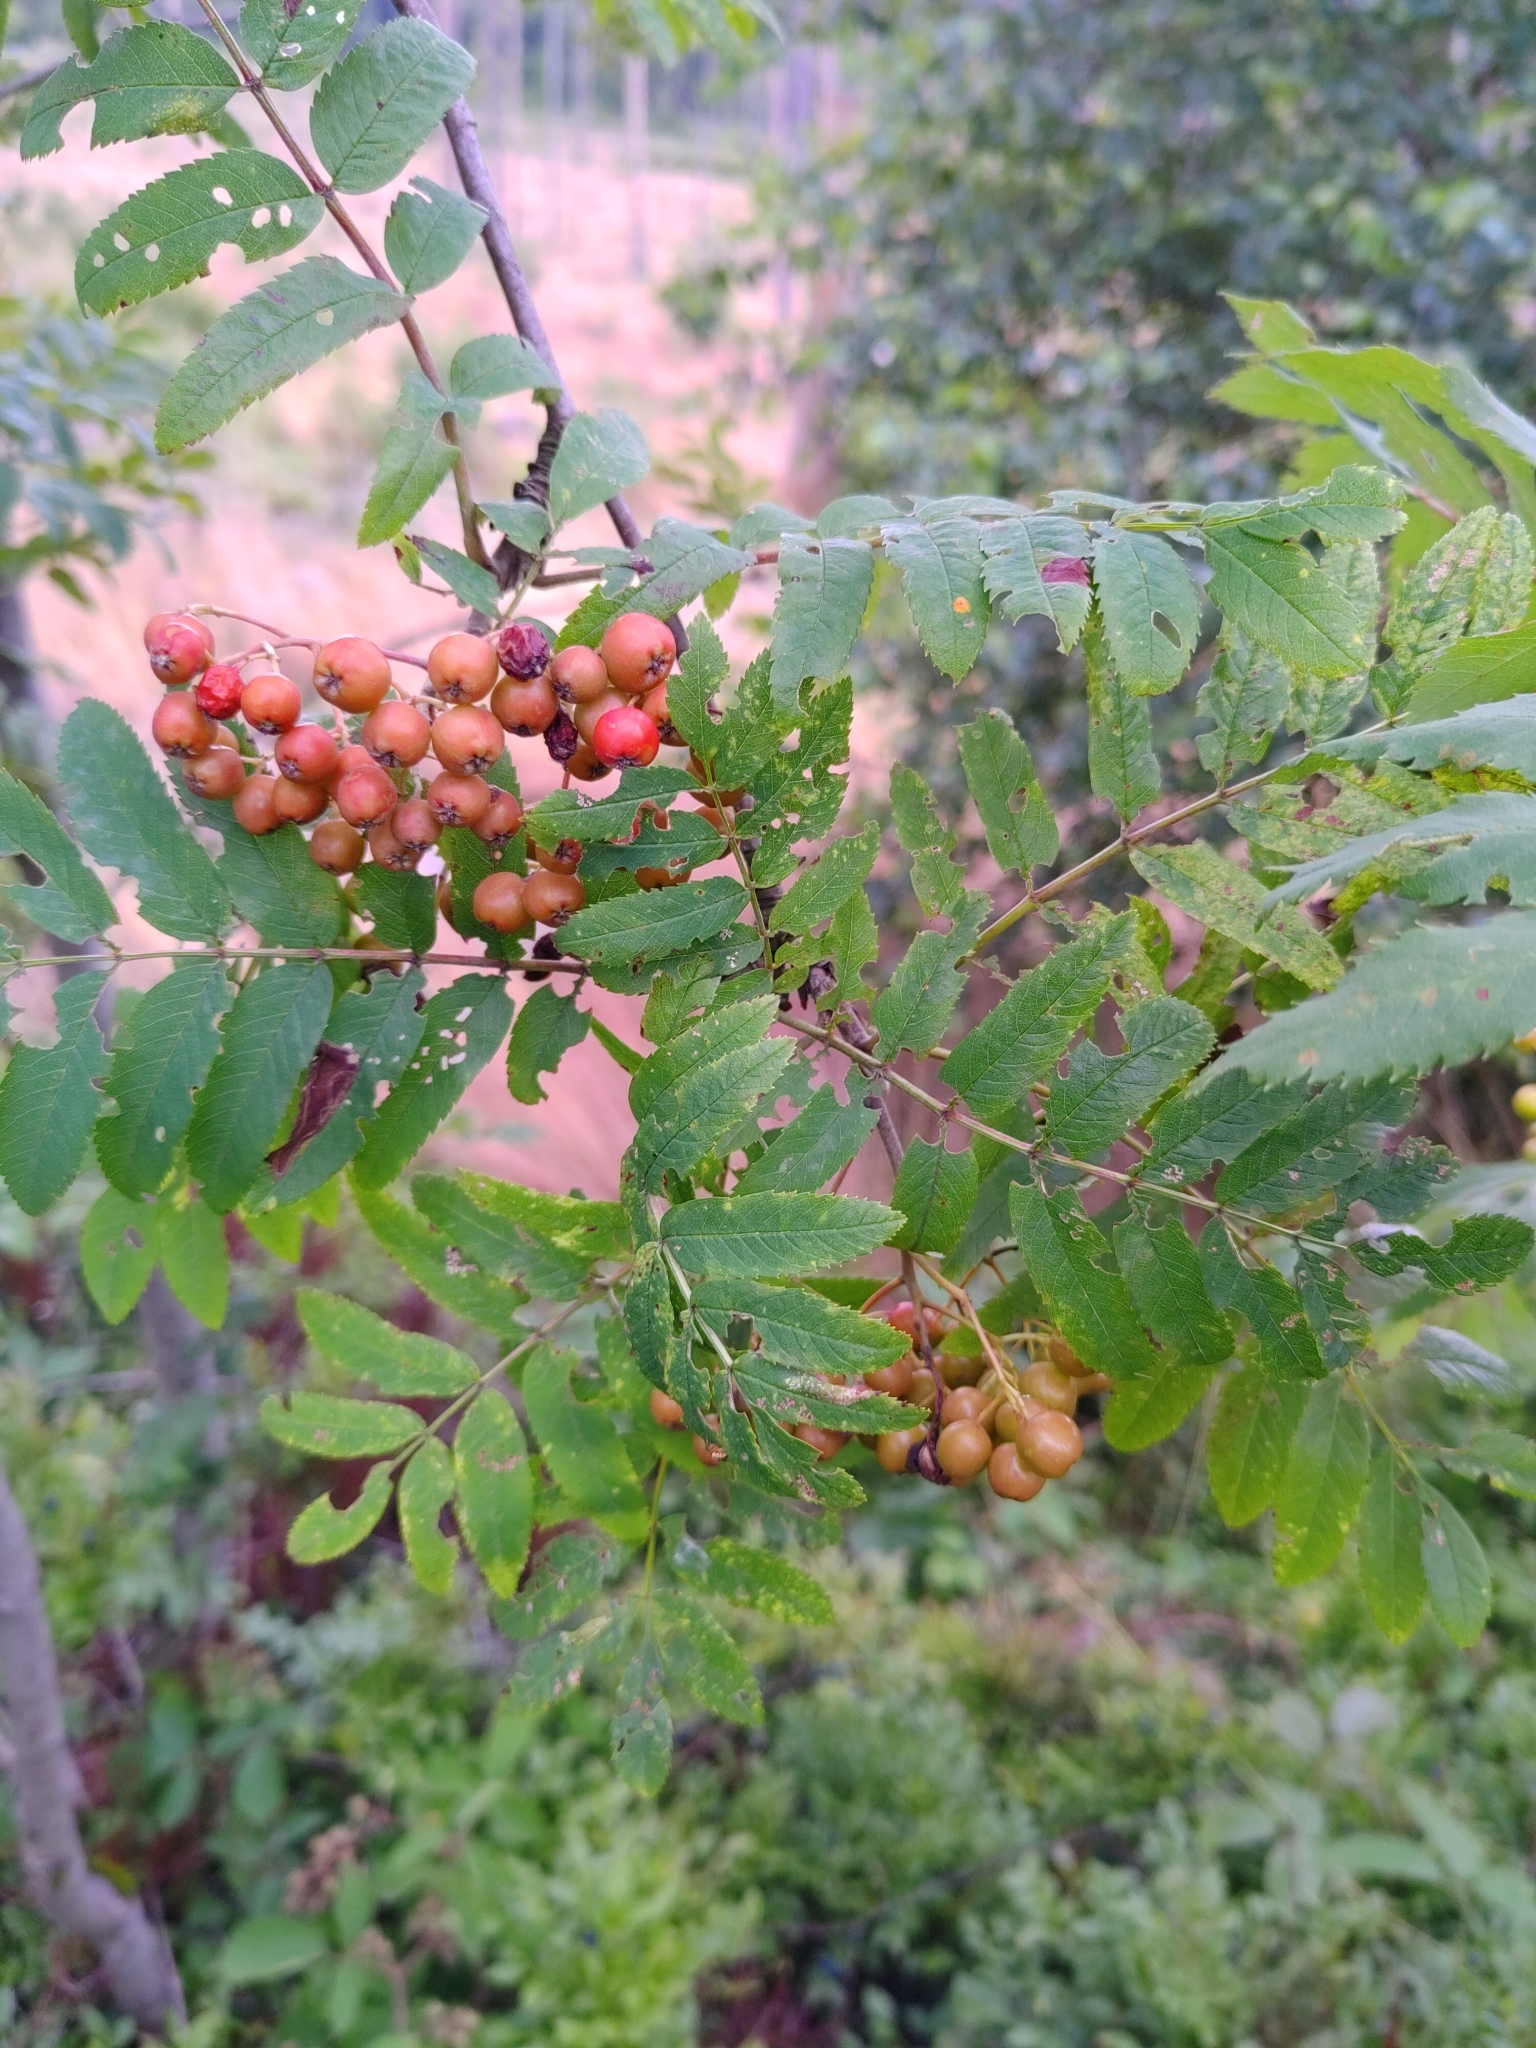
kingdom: Plantae
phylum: Tracheophyta
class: Magnoliopsida
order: Rosales
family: Rosaceae
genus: Sorbus
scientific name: Sorbus aucuparia
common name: Rowan
